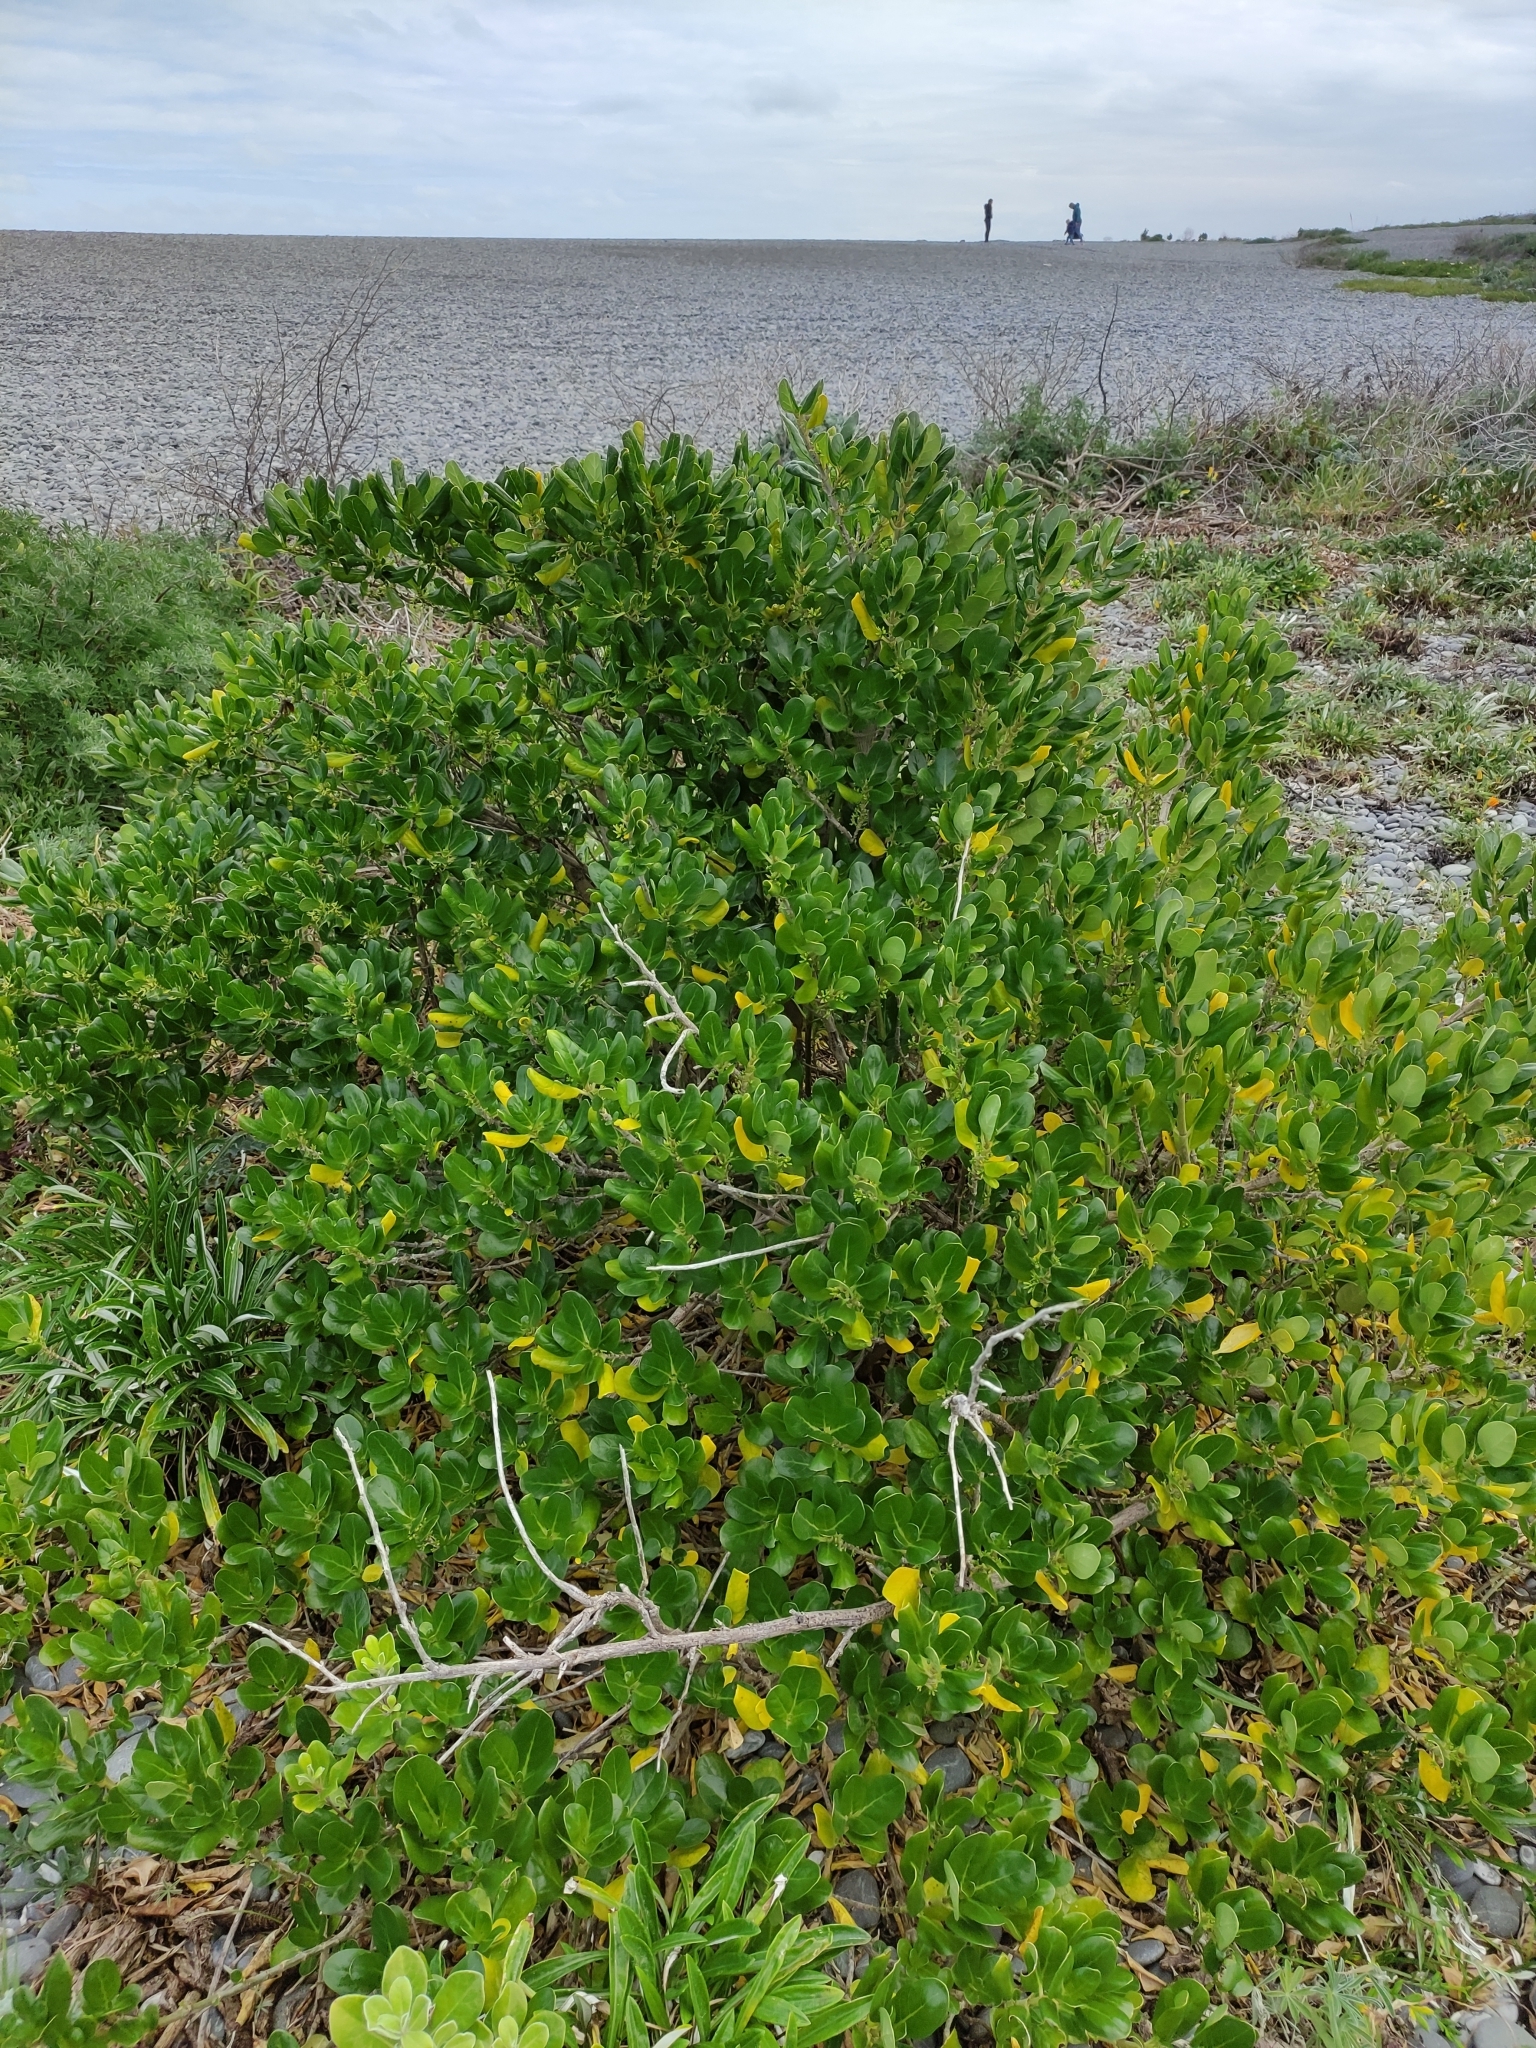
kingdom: Plantae
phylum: Tracheophyta
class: Magnoliopsida
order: Gentianales
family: Rubiaceae
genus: Coprosma
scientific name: Coprosma repens
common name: Tree bedstraw
